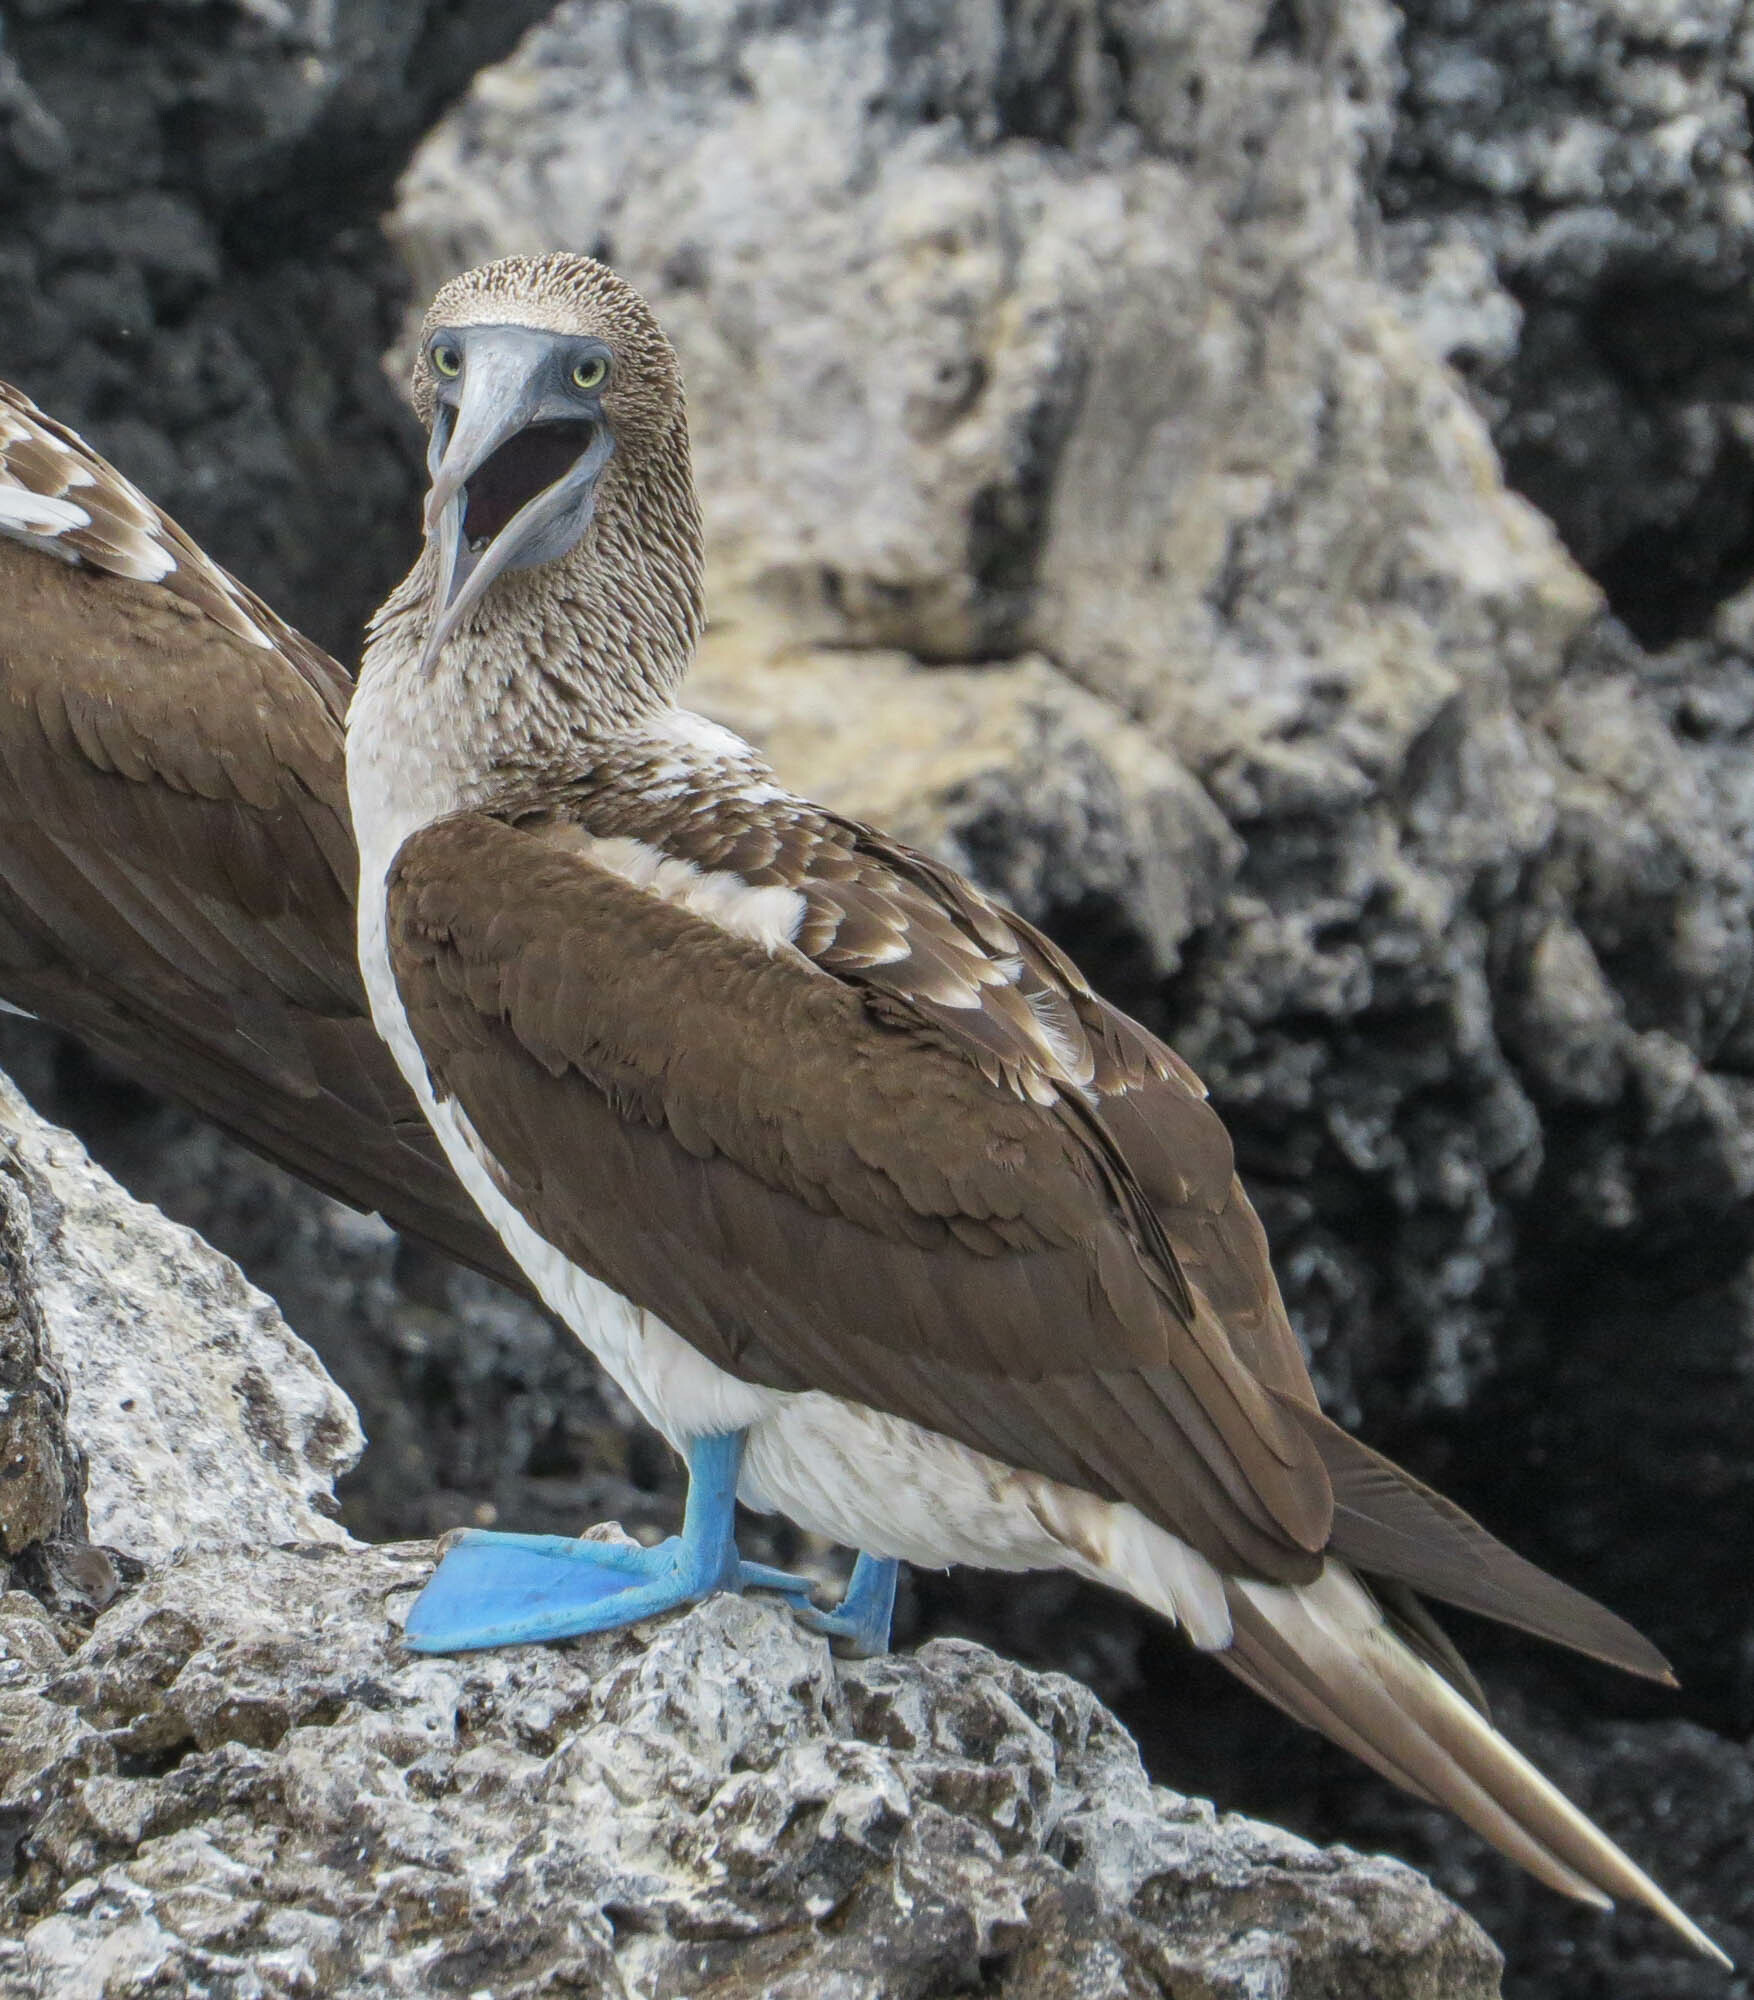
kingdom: Animalia
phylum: Chordata
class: Aves
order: Suliformes
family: Sulidae
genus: Sula
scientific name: Sula nebouxii
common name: Blue-footed booby
